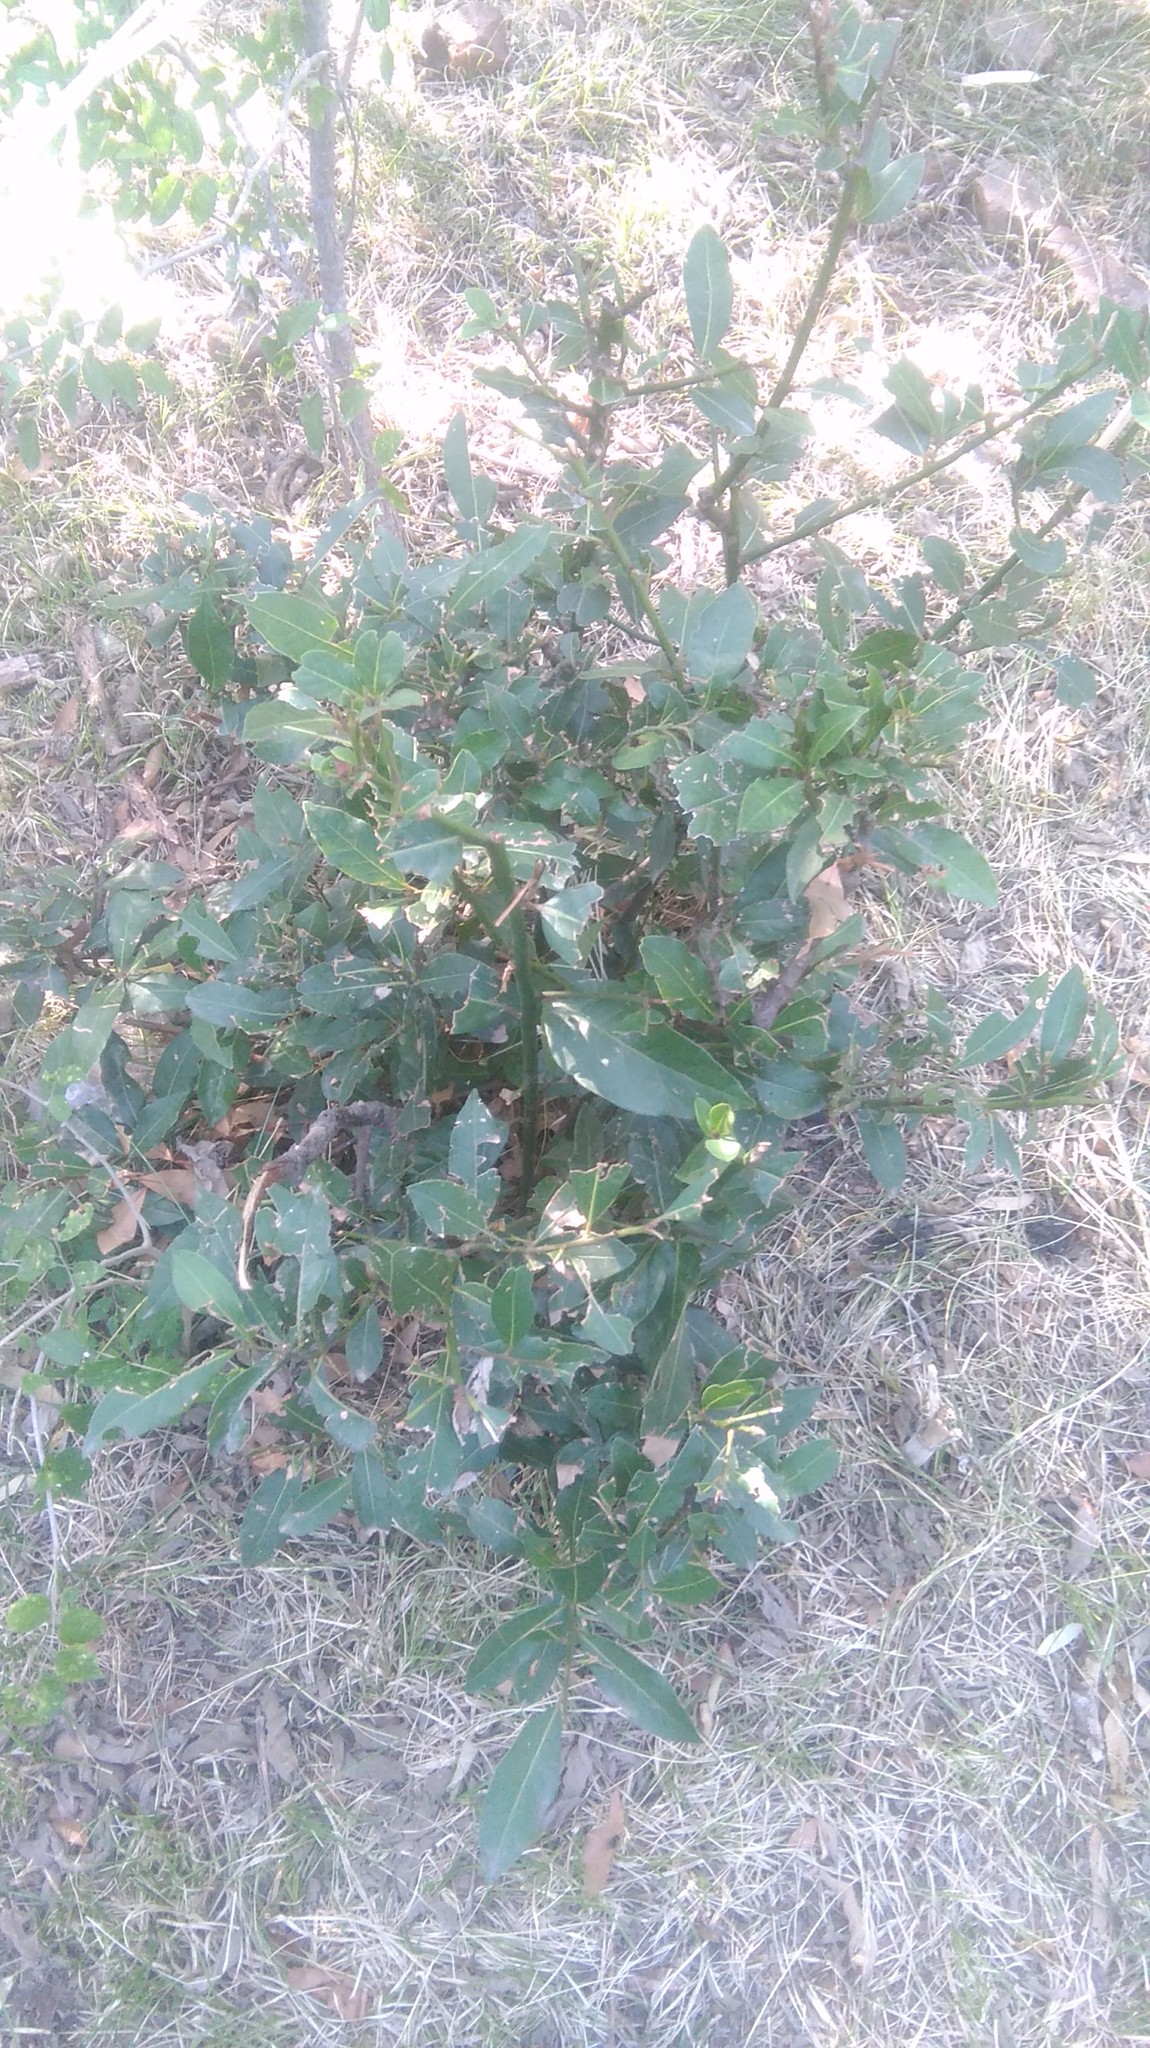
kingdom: Plantae
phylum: Tracheophyta
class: Magnoliopsida
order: Laurales
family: Lauraceae
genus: Laurus
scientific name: Laurus nobilis
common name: Bay
